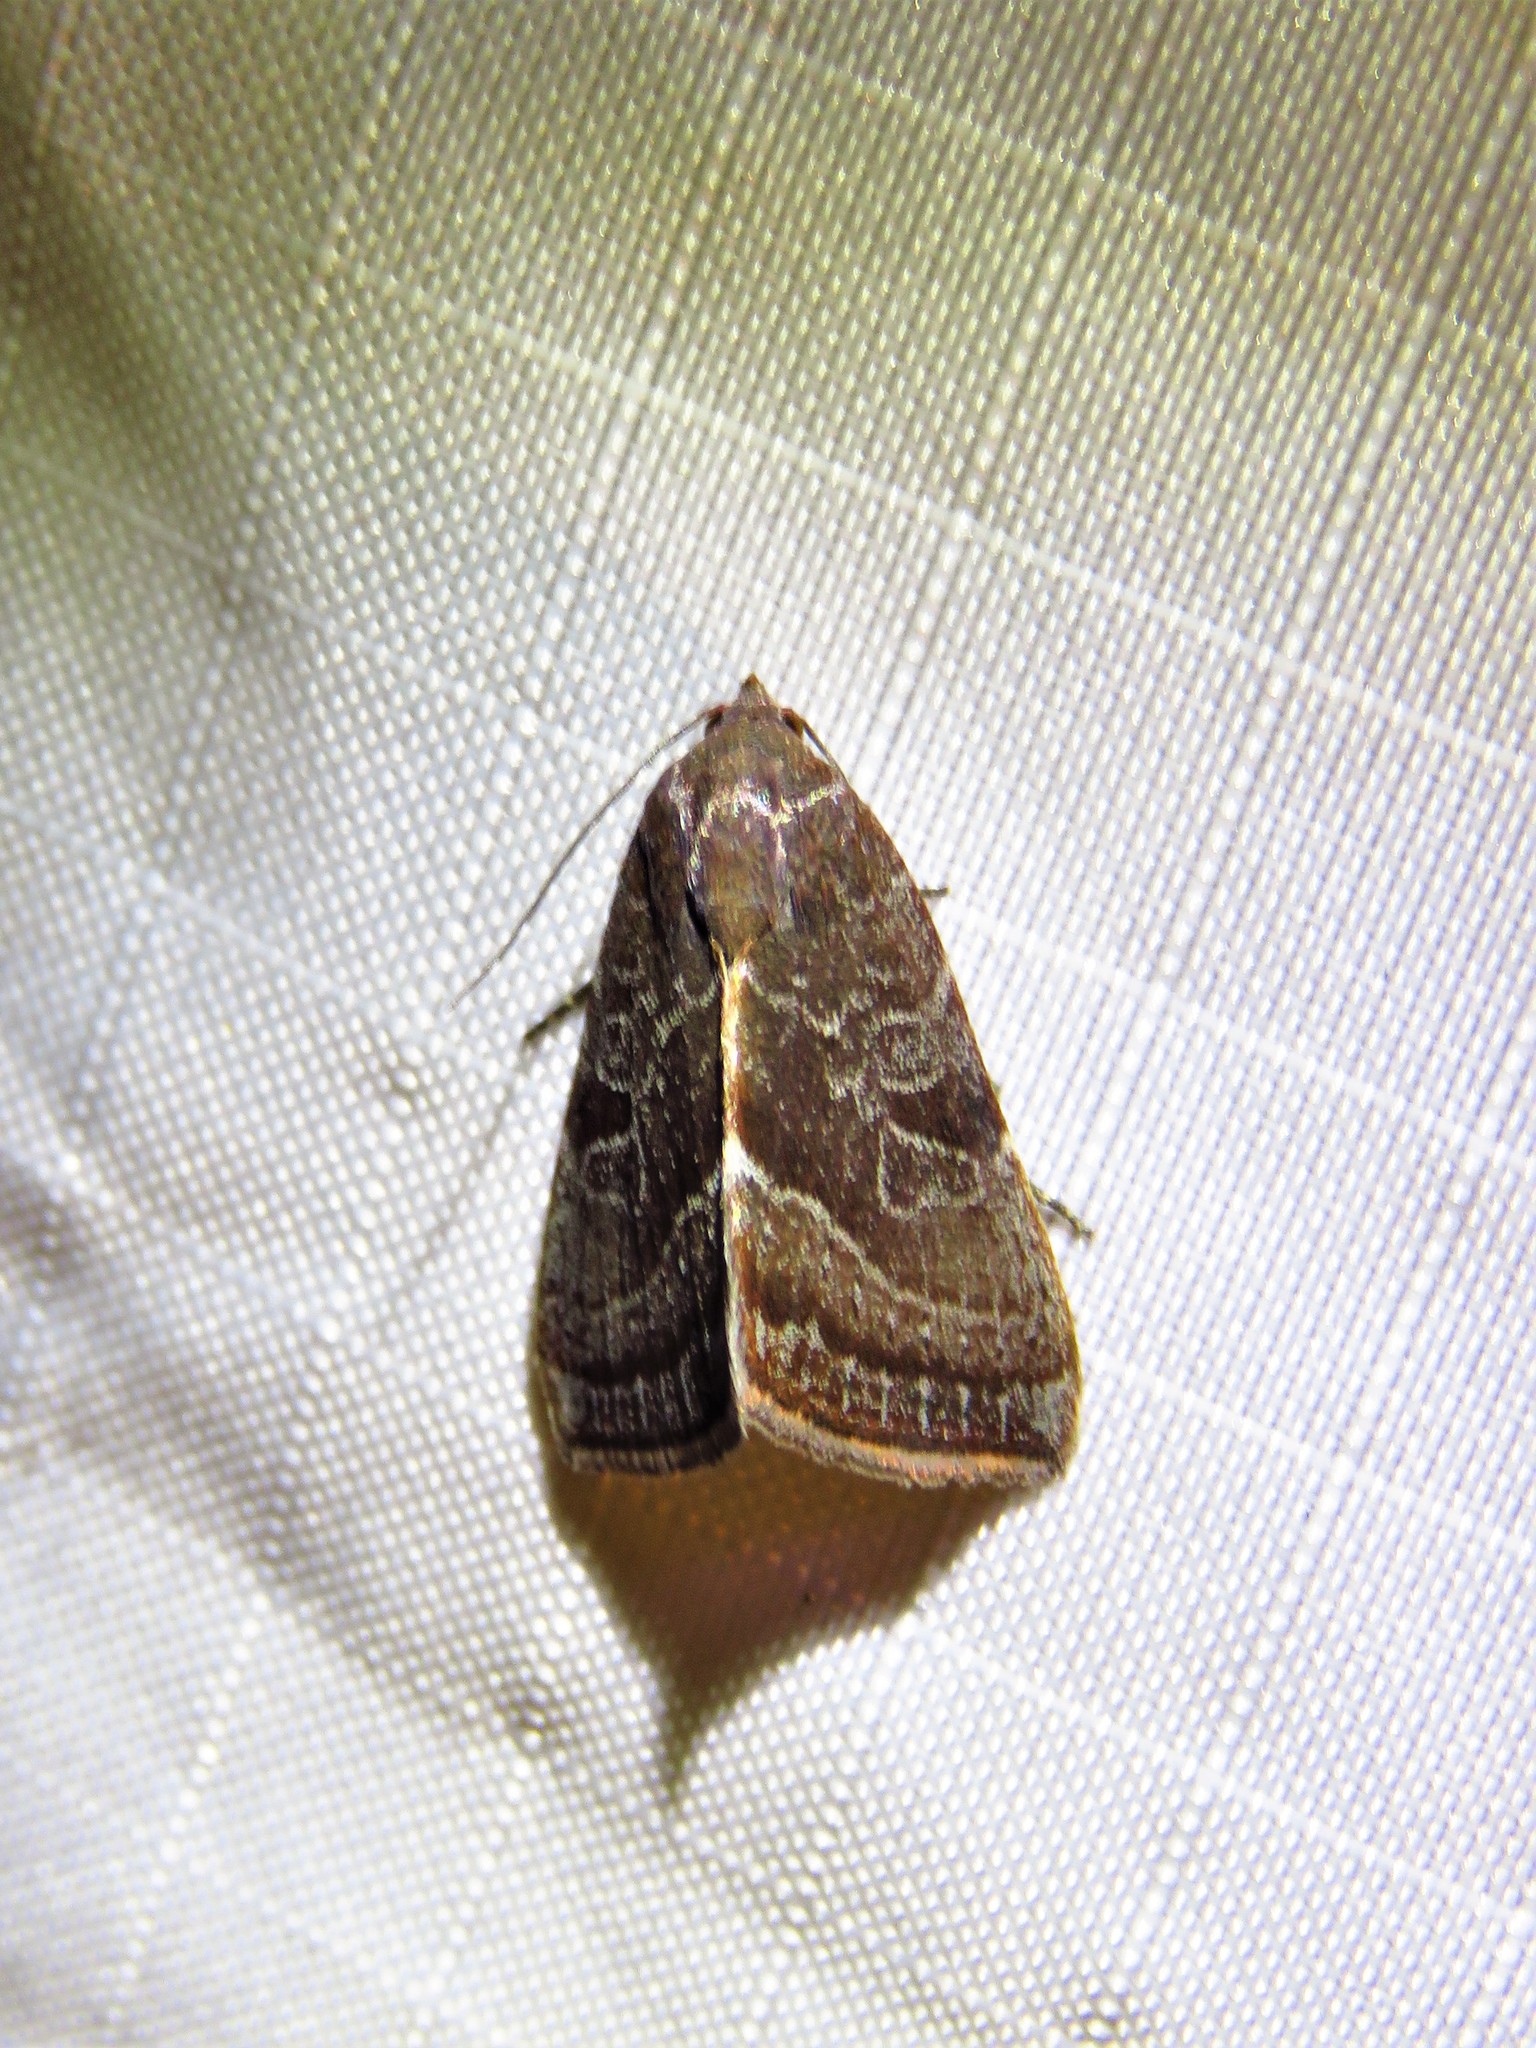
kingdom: Animalia
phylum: Arthropoda
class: Insecta
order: Lepidoptera
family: Noctuidae
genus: Galgula
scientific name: Galgula partita
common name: Wedgeling
